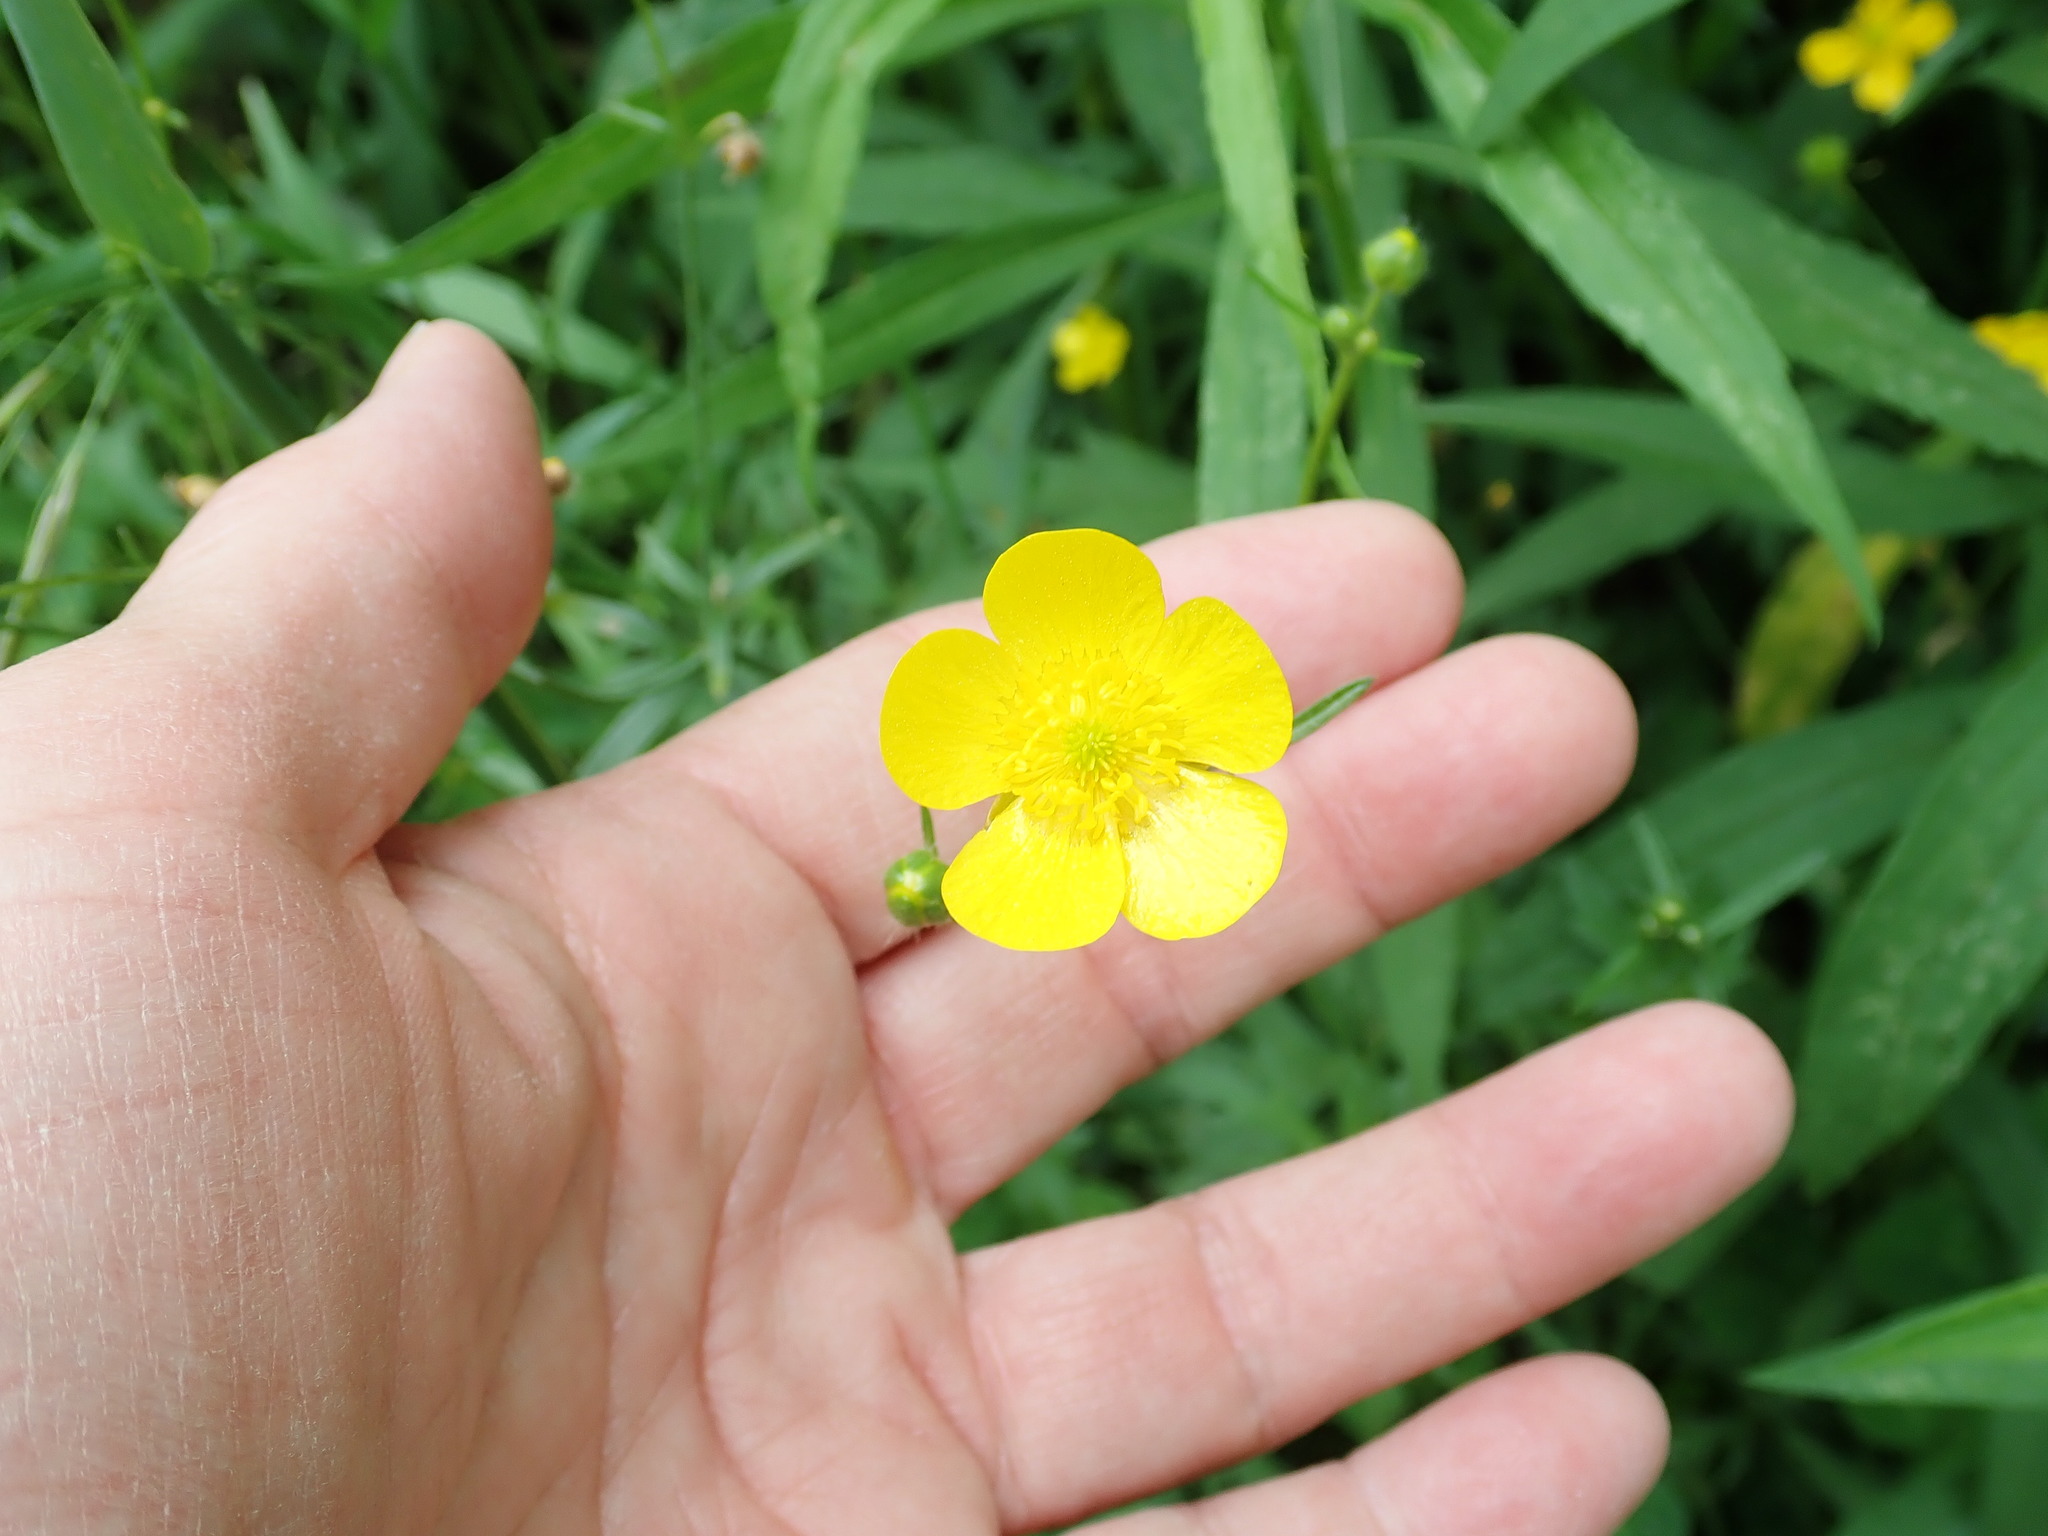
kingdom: Plantae
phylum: Tracheophyta
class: Magnoliopsida
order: Ranunculales
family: Ranunculaceae
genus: Ranunculus
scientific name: Ranunculus acris
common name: Meadow buttercup
